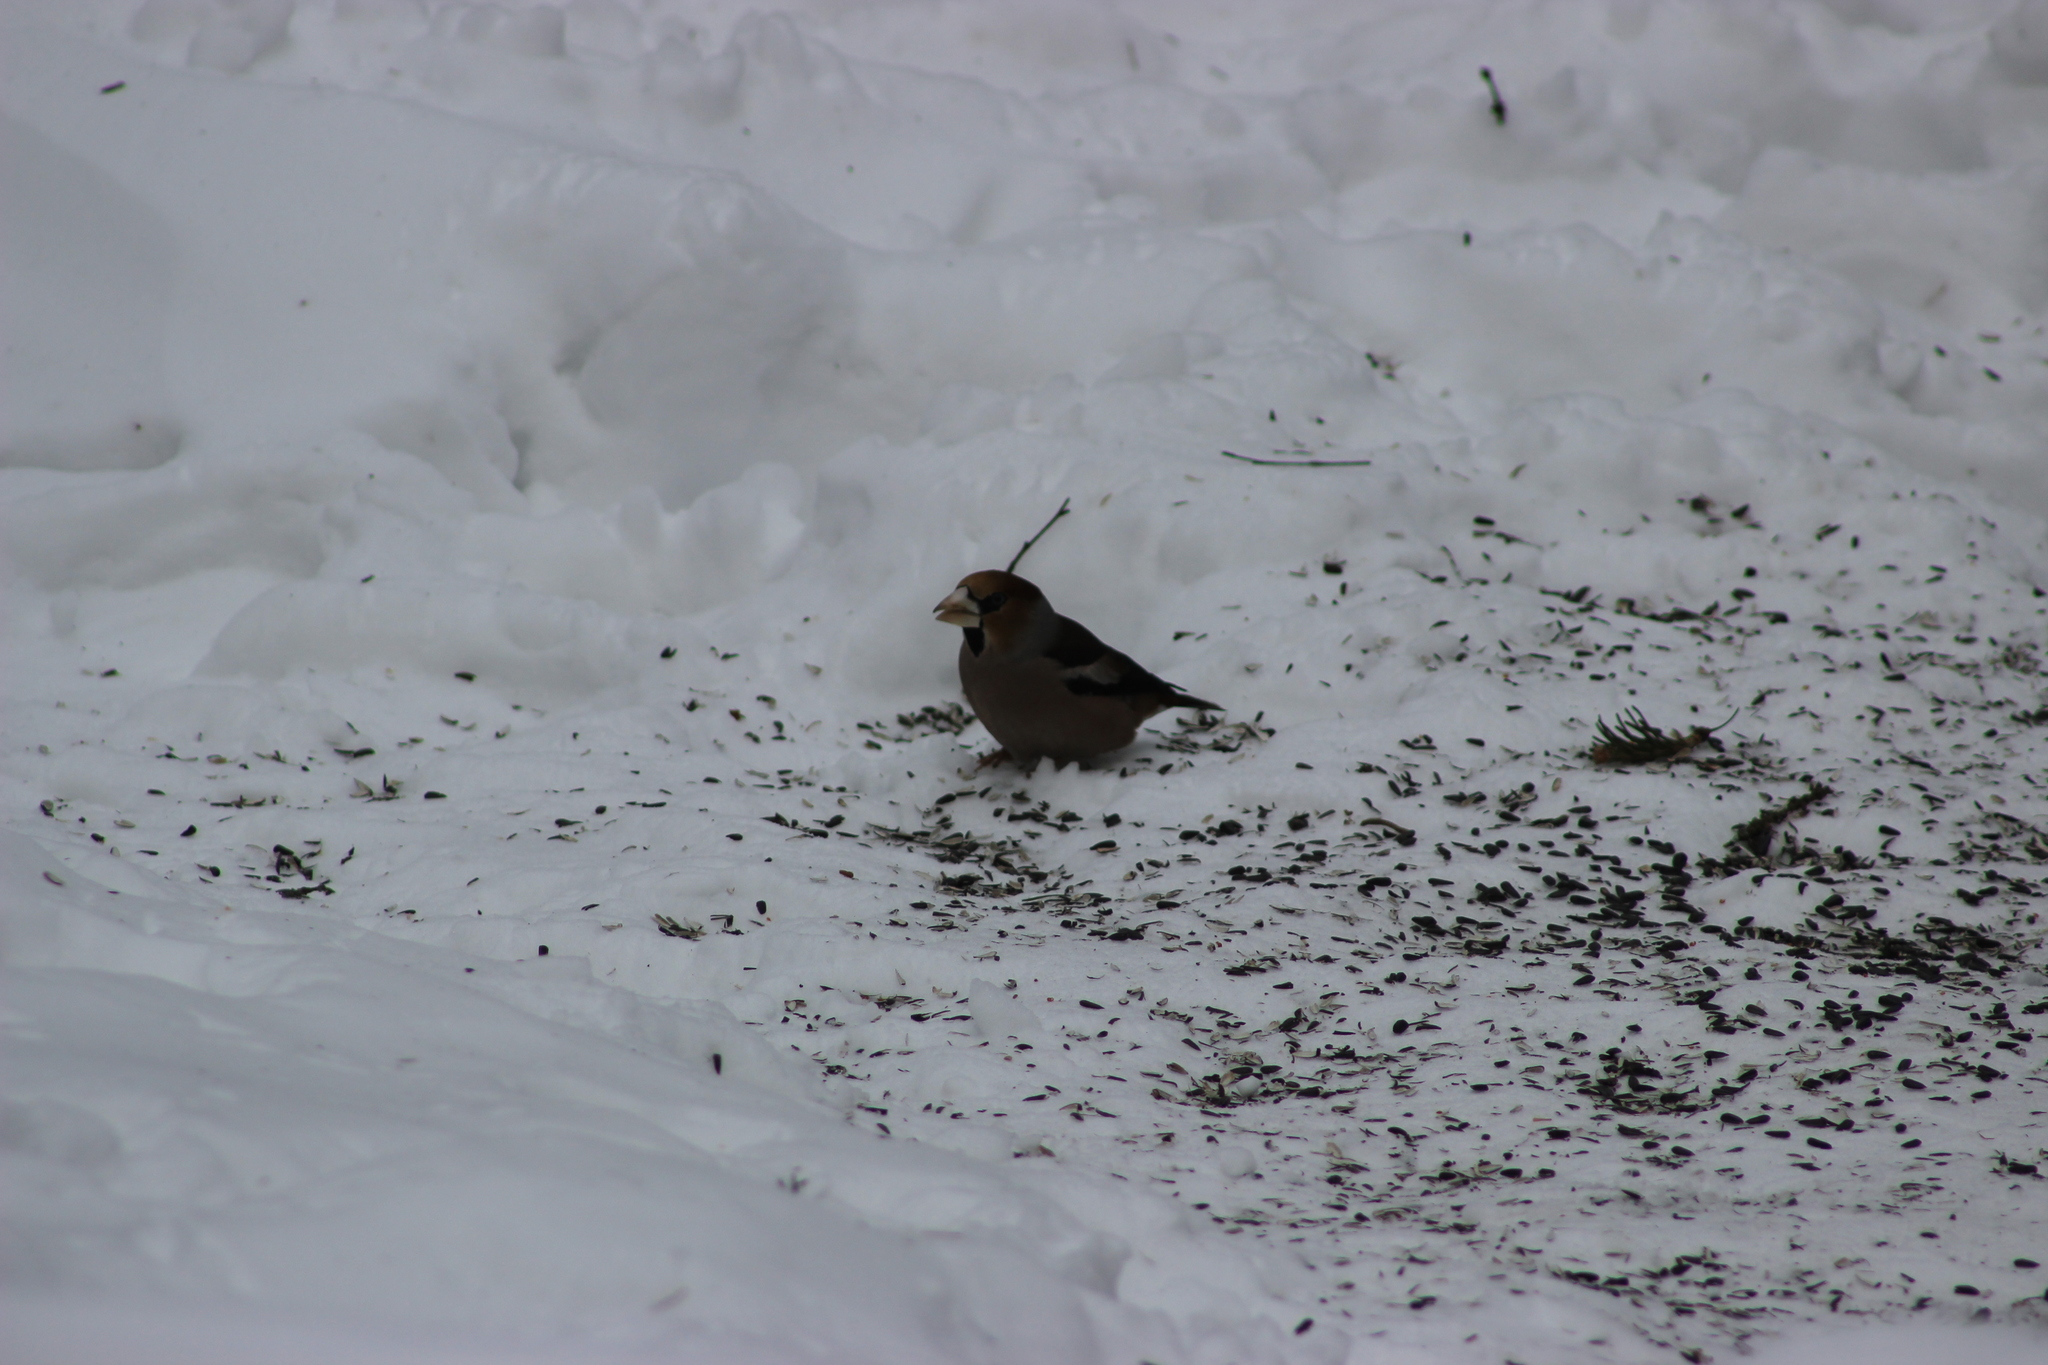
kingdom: Animalia
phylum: Chordata
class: Aves
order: Passeriformes
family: Fringillidae
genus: Coccothraustes
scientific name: Coccothraustes coccothraustes
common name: Hawfinch
